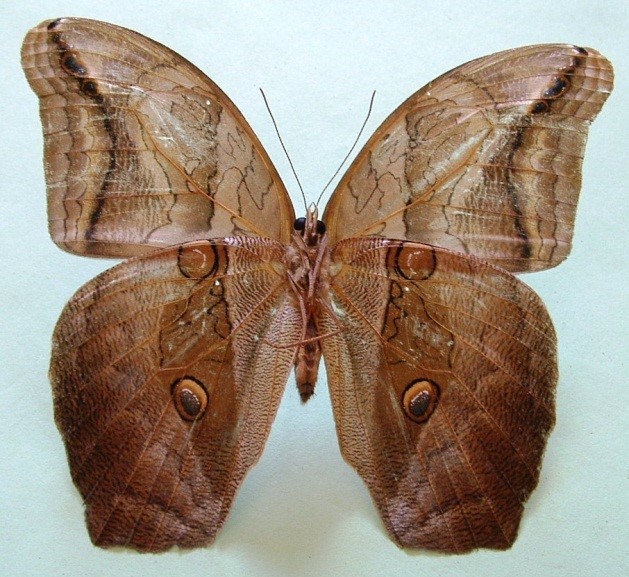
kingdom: Animalia
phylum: Arthropoda
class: Insecta
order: Lepidoptera
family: Nymphalidae
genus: Eryphanis
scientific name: Eryphanis lycomedon
